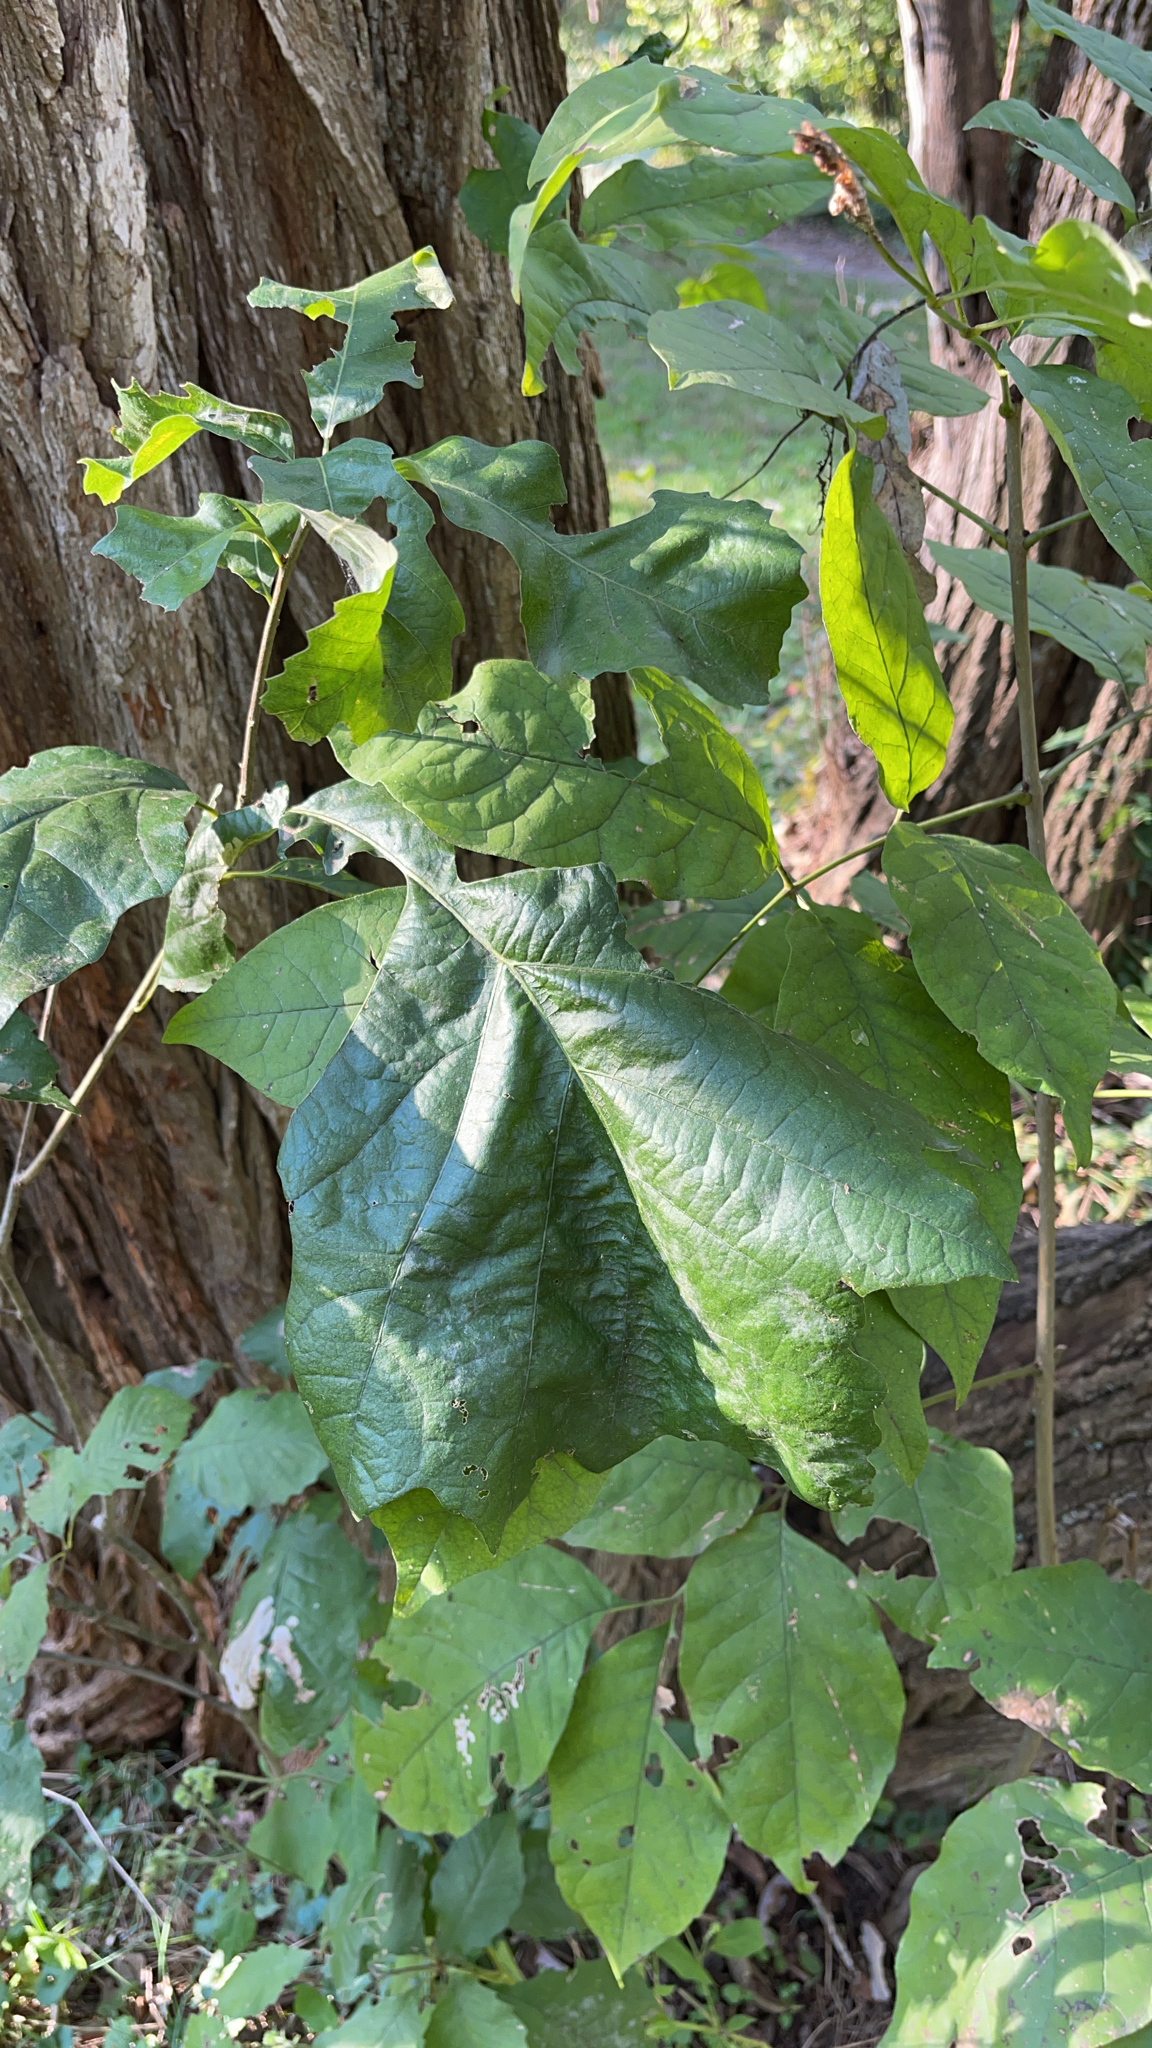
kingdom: Plantae
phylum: Tracheophyta
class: Magnoliopsida
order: Sapindales
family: Anacardiaceae
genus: Toxicodendron
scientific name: Toxicodendron radicans
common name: Poison ivy
